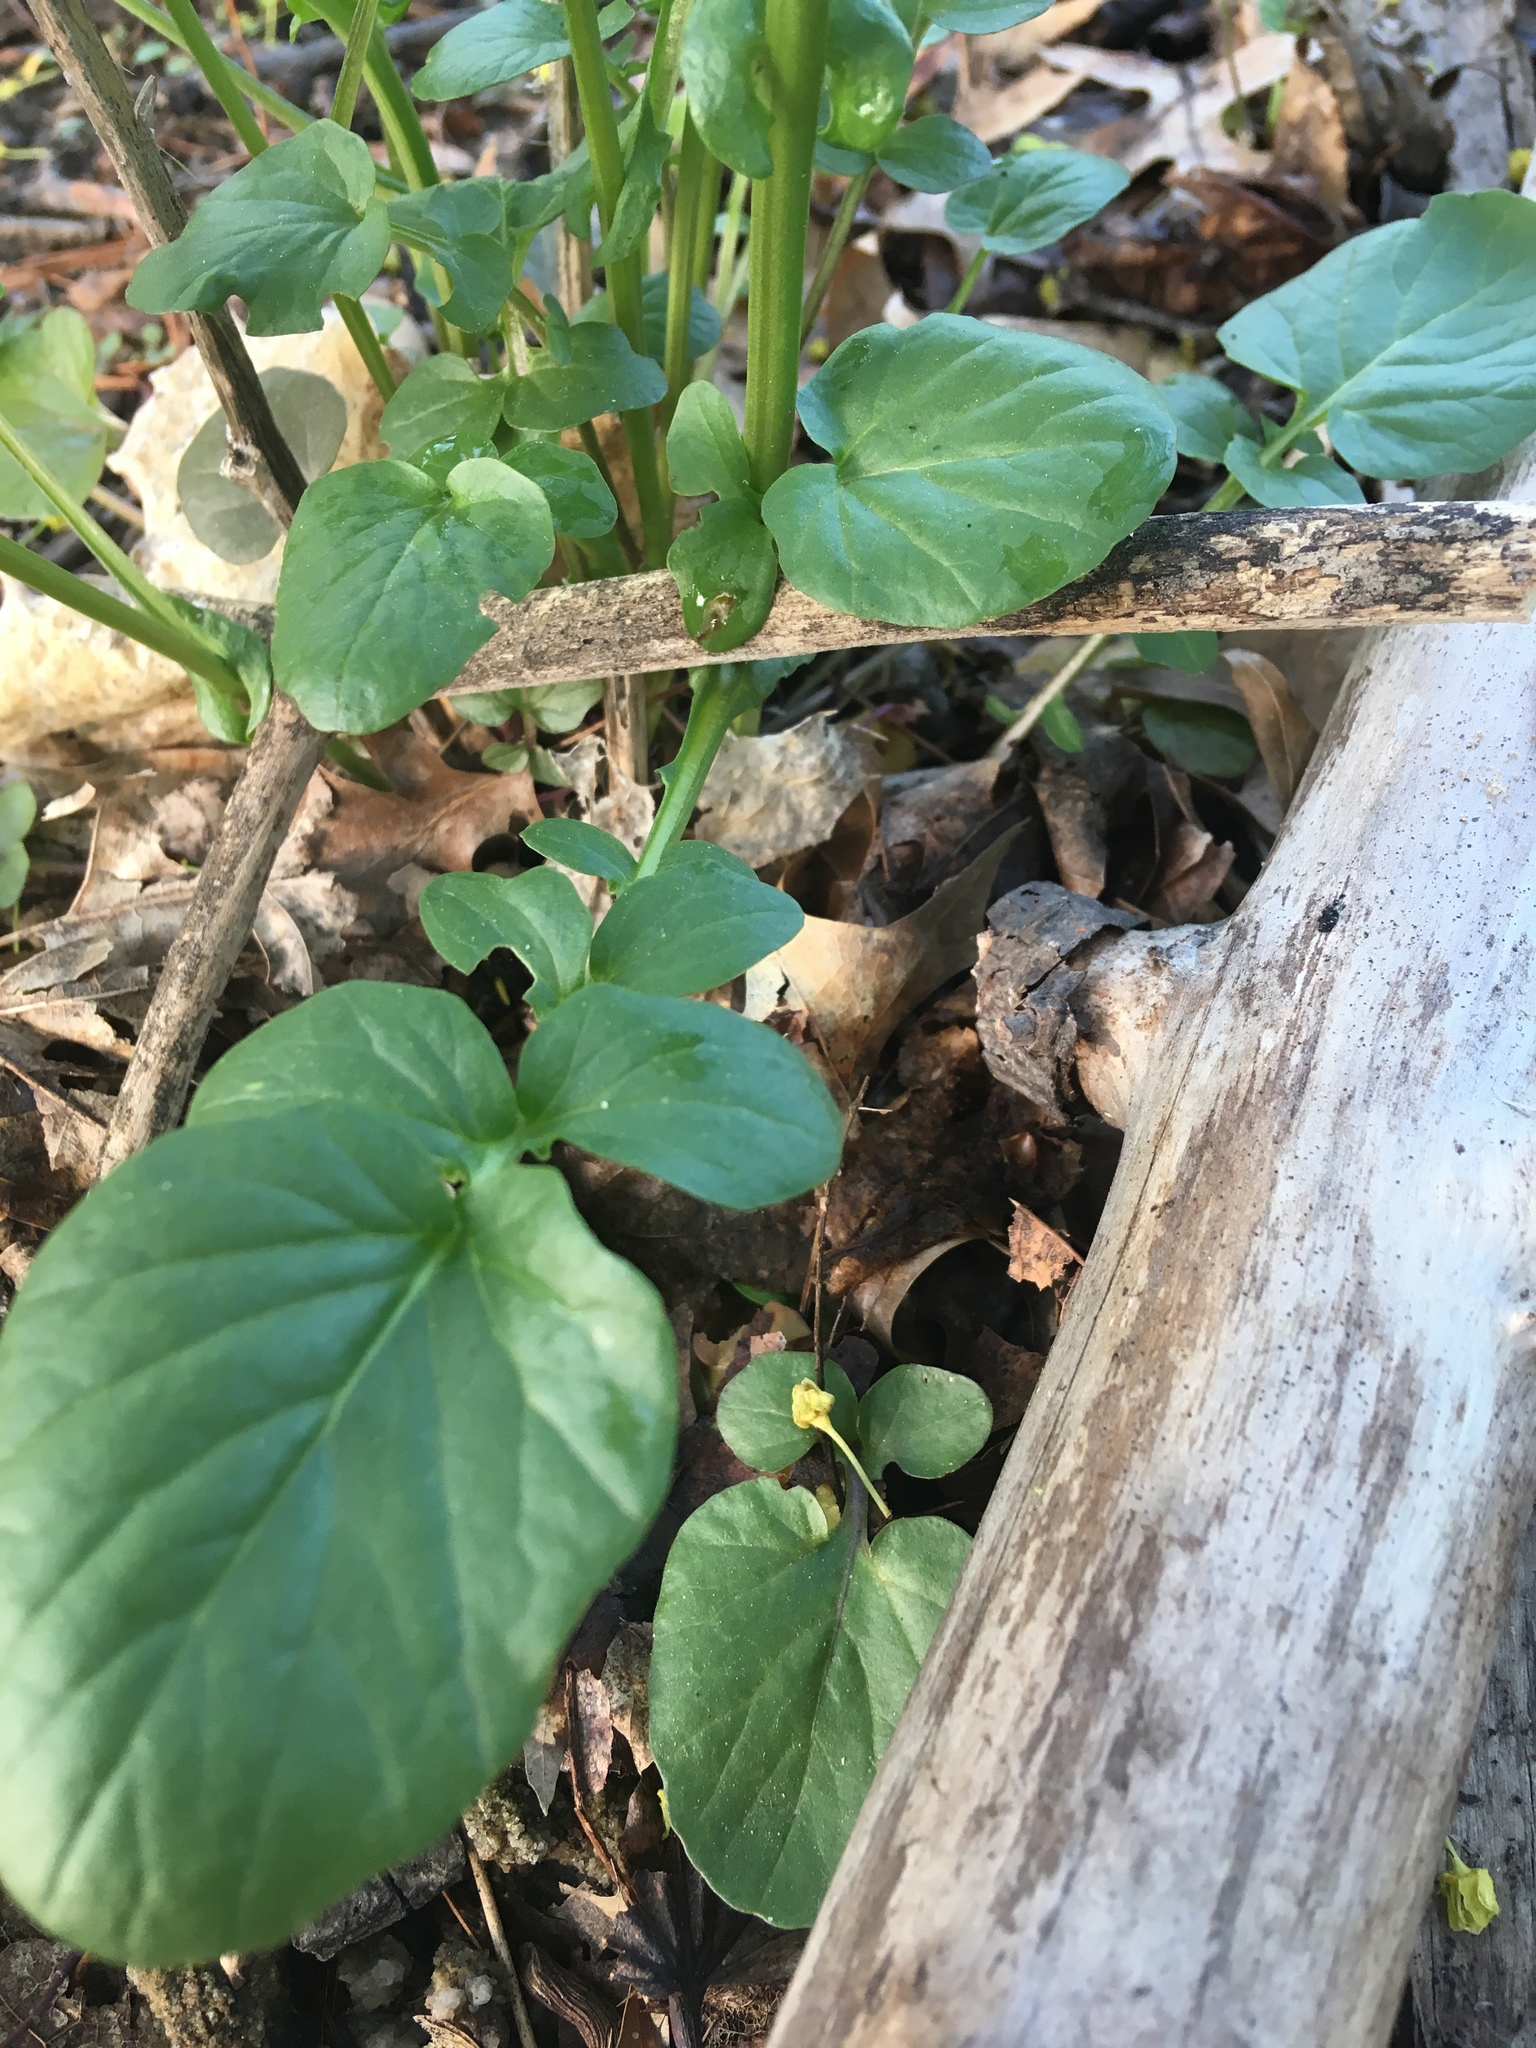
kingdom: Plantae
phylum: Tracheophyta
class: Magnoliopsida
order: Brassicales
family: Brassicaceae
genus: Barbarea
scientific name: Barbarea vulgaris
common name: Cressy-greens
